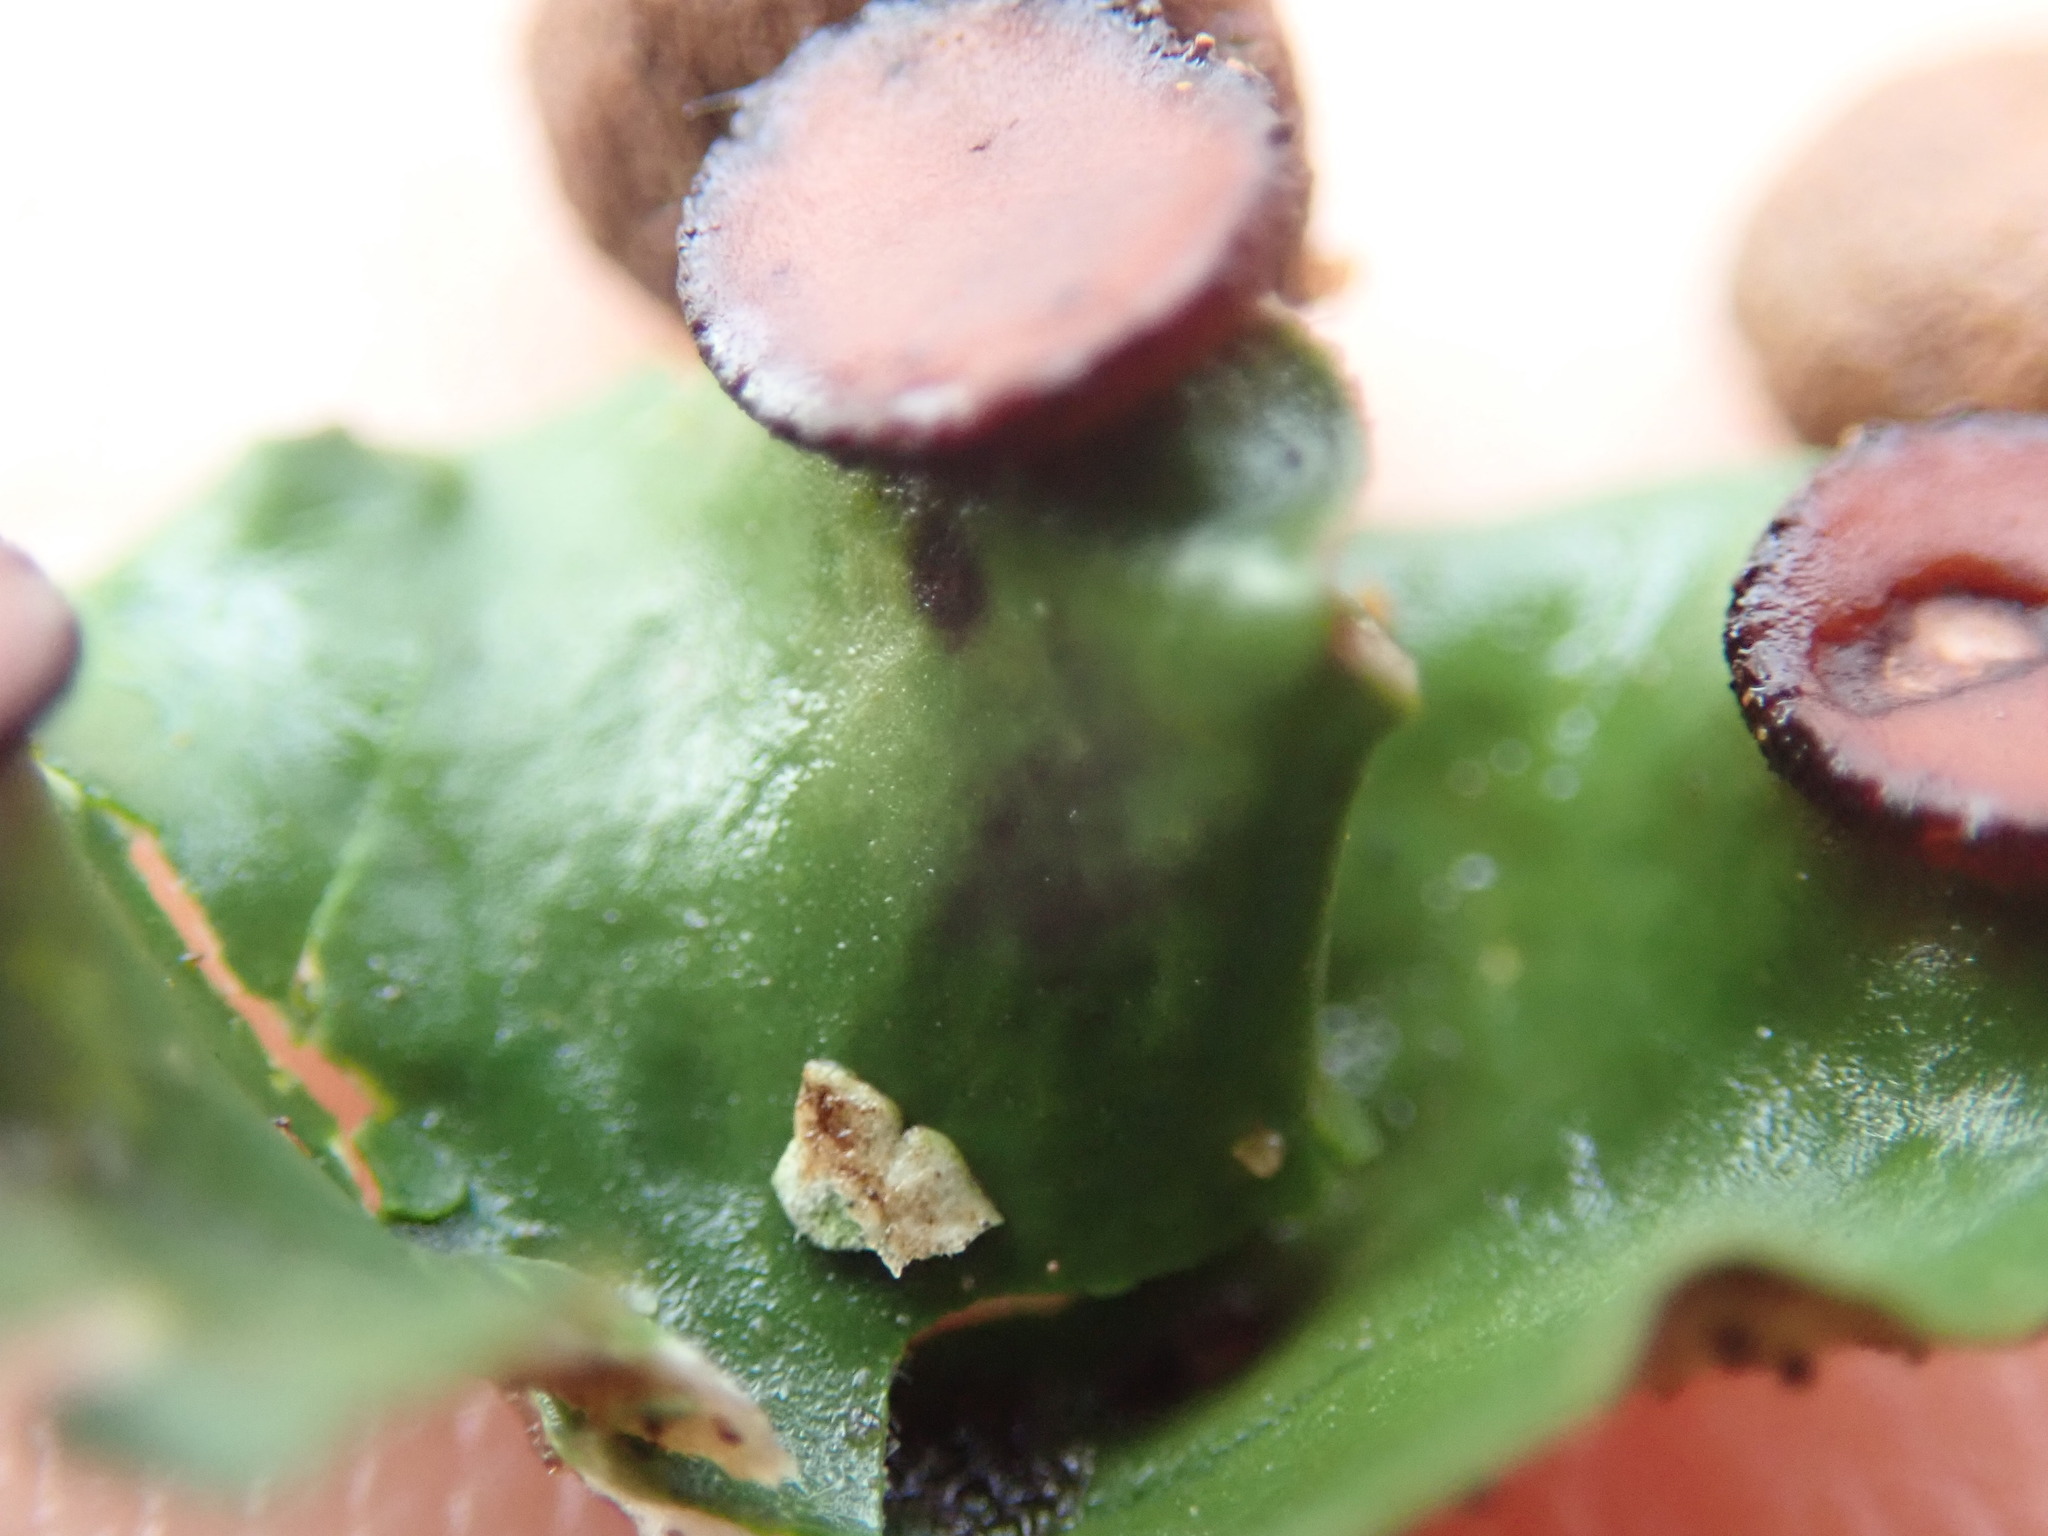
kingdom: Fungi
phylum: Ascomycota
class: Lecanoromycetes
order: Peltigerales
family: Peltigeraceae
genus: Peltigera
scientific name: Peltigera venosa
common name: Pixie gowns lichen
